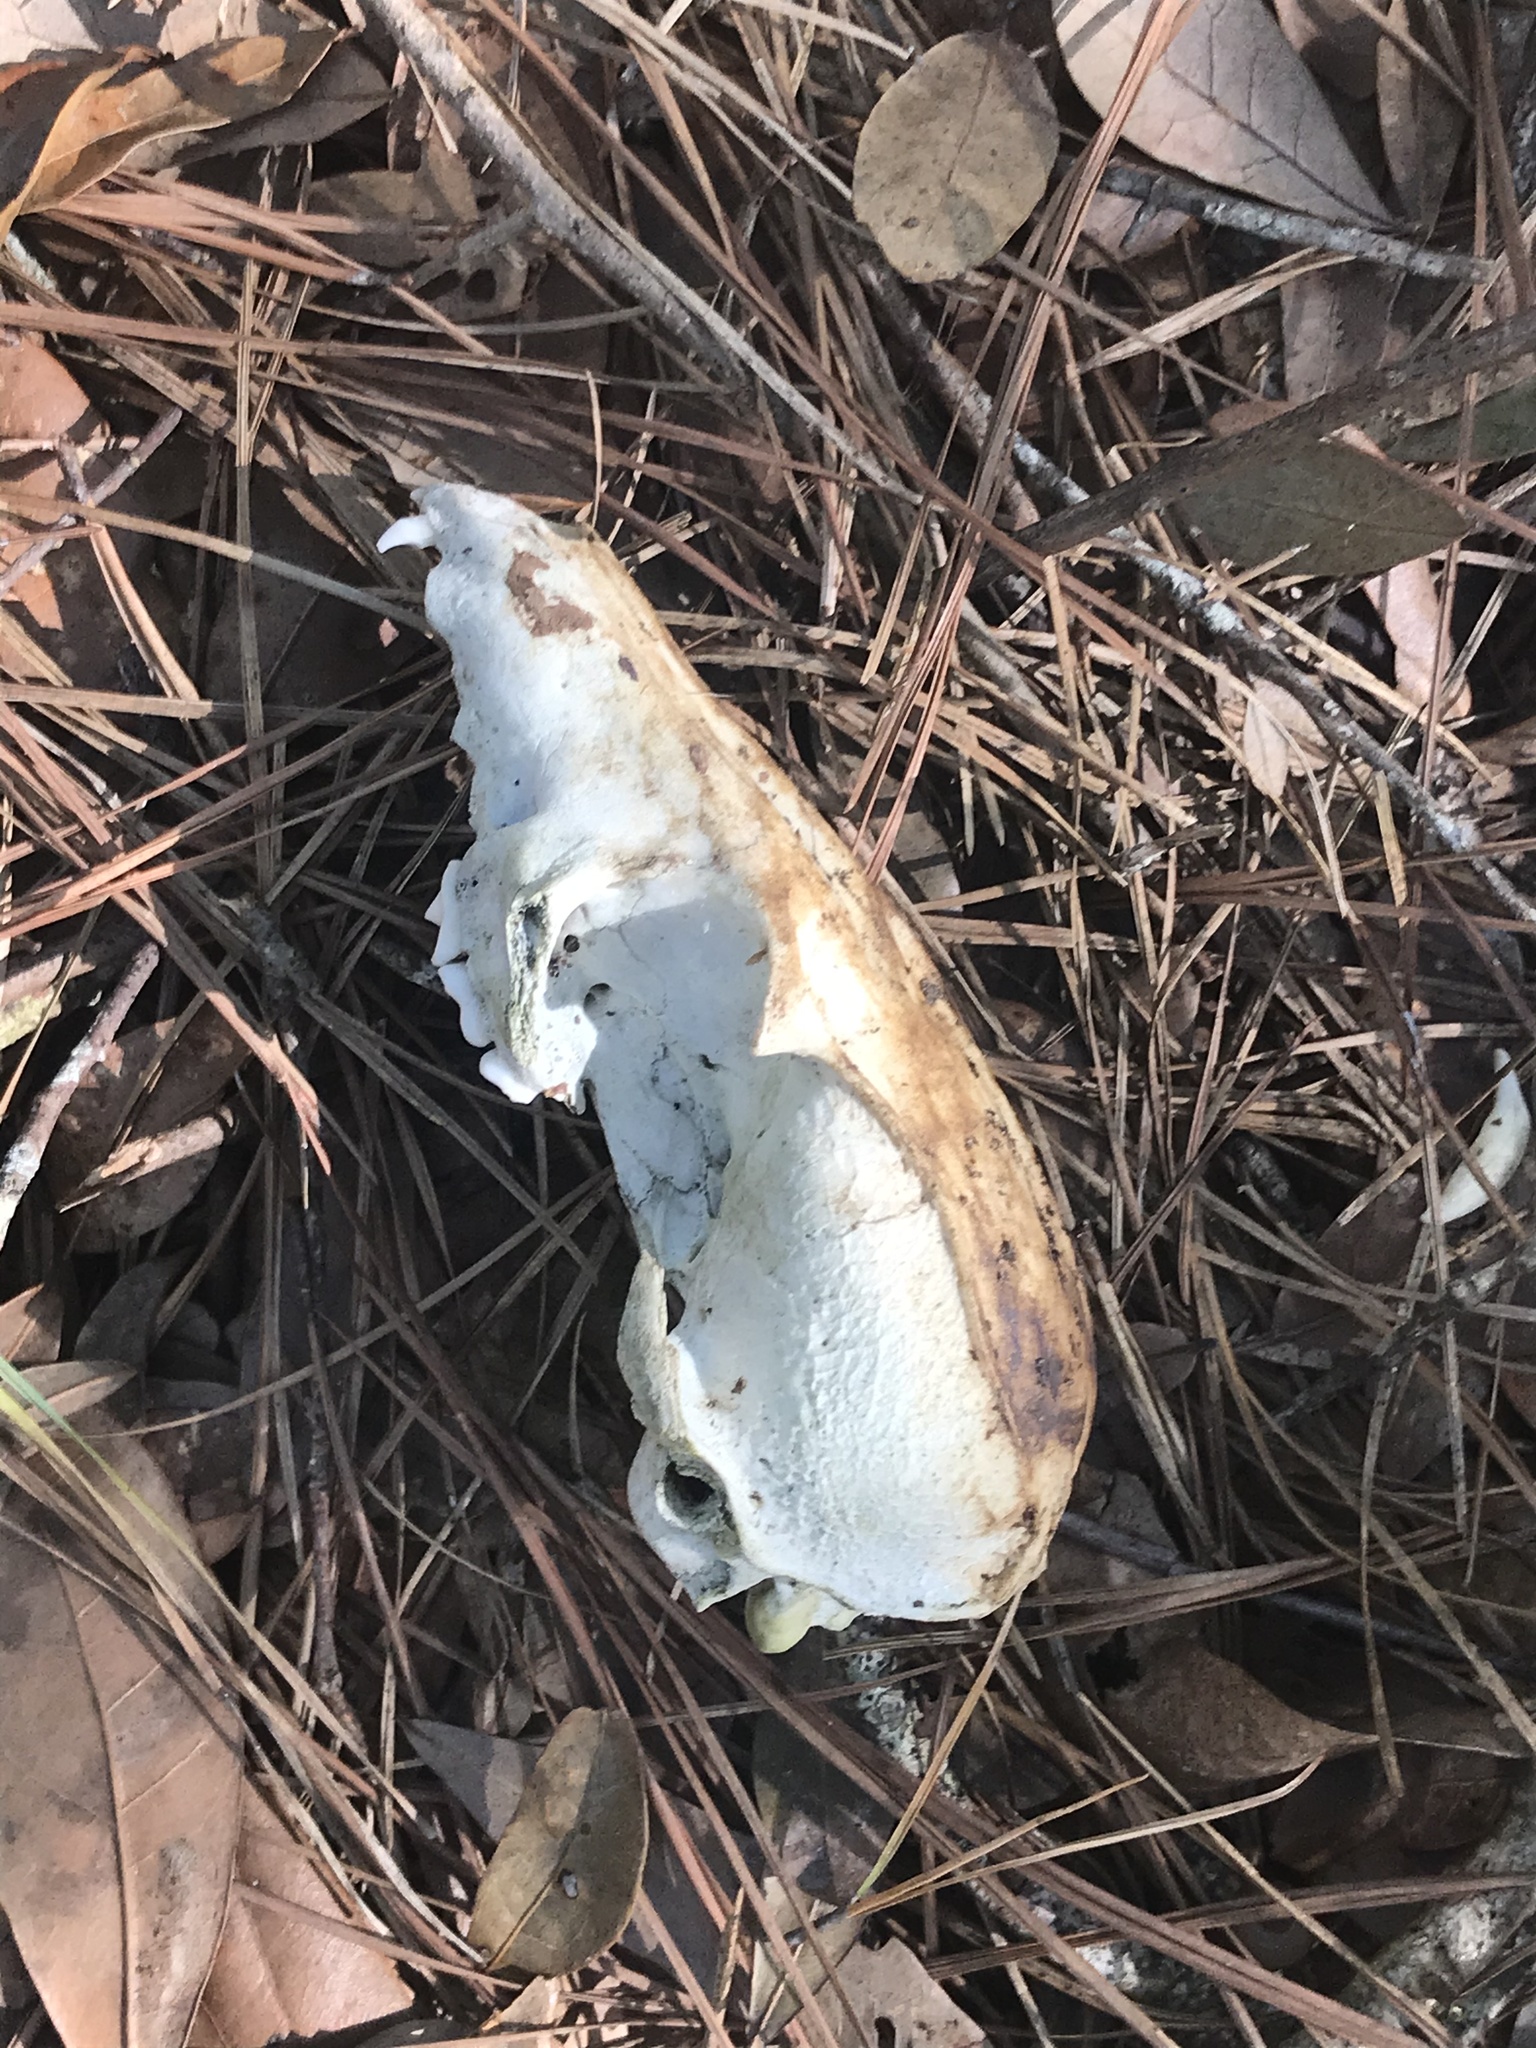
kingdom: Animalia
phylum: Chordata
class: Mammalia
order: Carnivora
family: Canidae
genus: Urocyon
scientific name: Urocyon cinereoargenteus
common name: Gray fox
